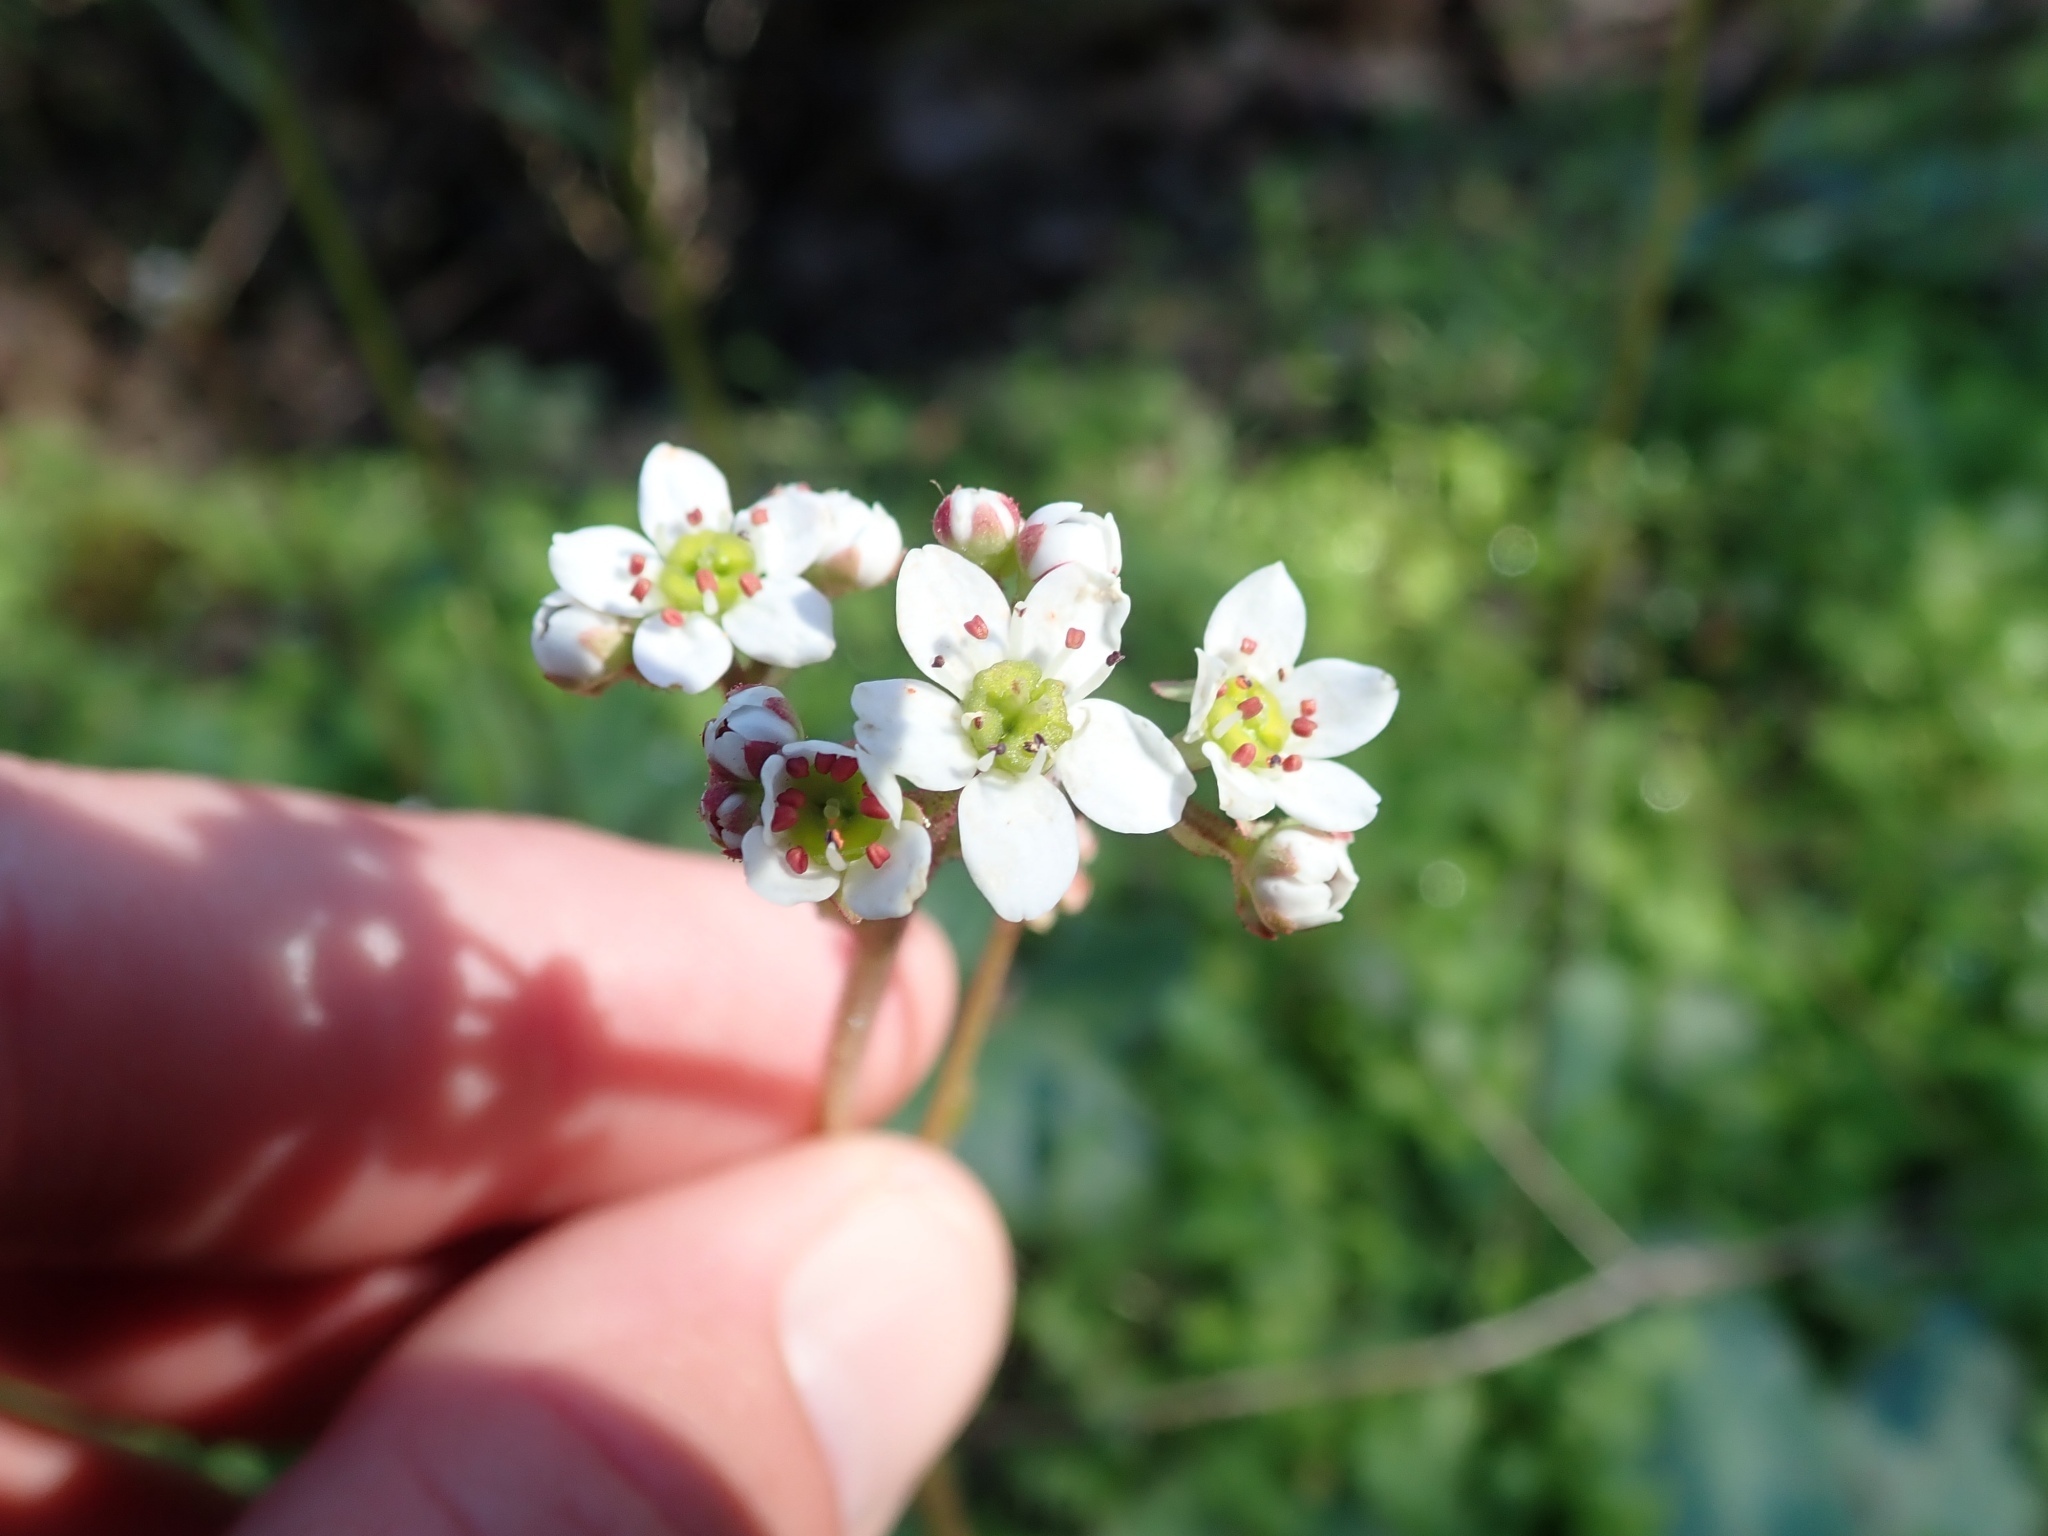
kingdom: Plantae
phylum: Tracheophyta
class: Magnoliopsida
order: Saxifragales
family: Saxifragaceae
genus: Micranthes
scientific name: Micranthes californica
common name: California saxifrage
